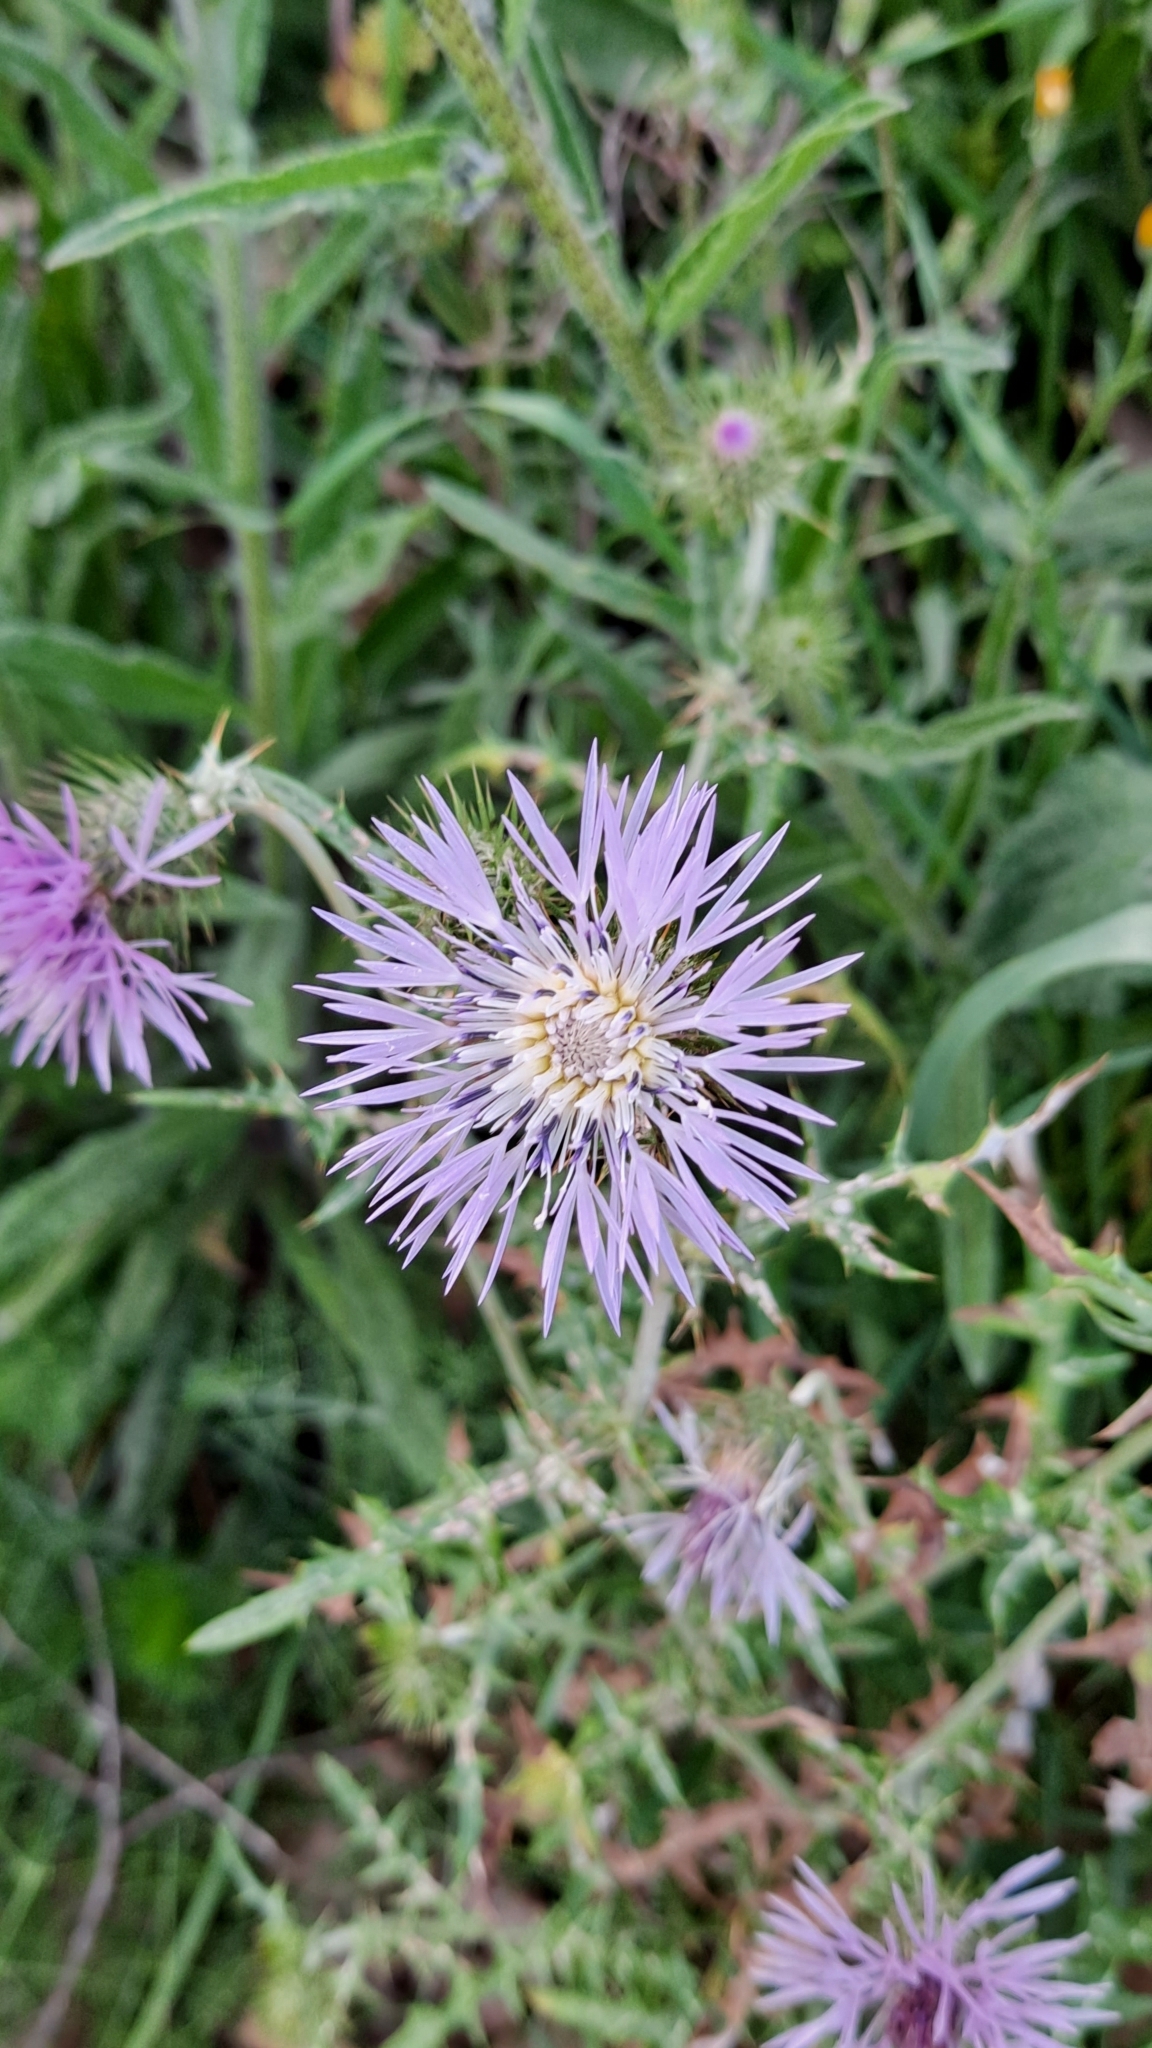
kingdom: Plantae
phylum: Tracheophyta
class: Magnoliopsida
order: Asterales
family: Asteraceae
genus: Galactites
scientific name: Galactites tomentosa
